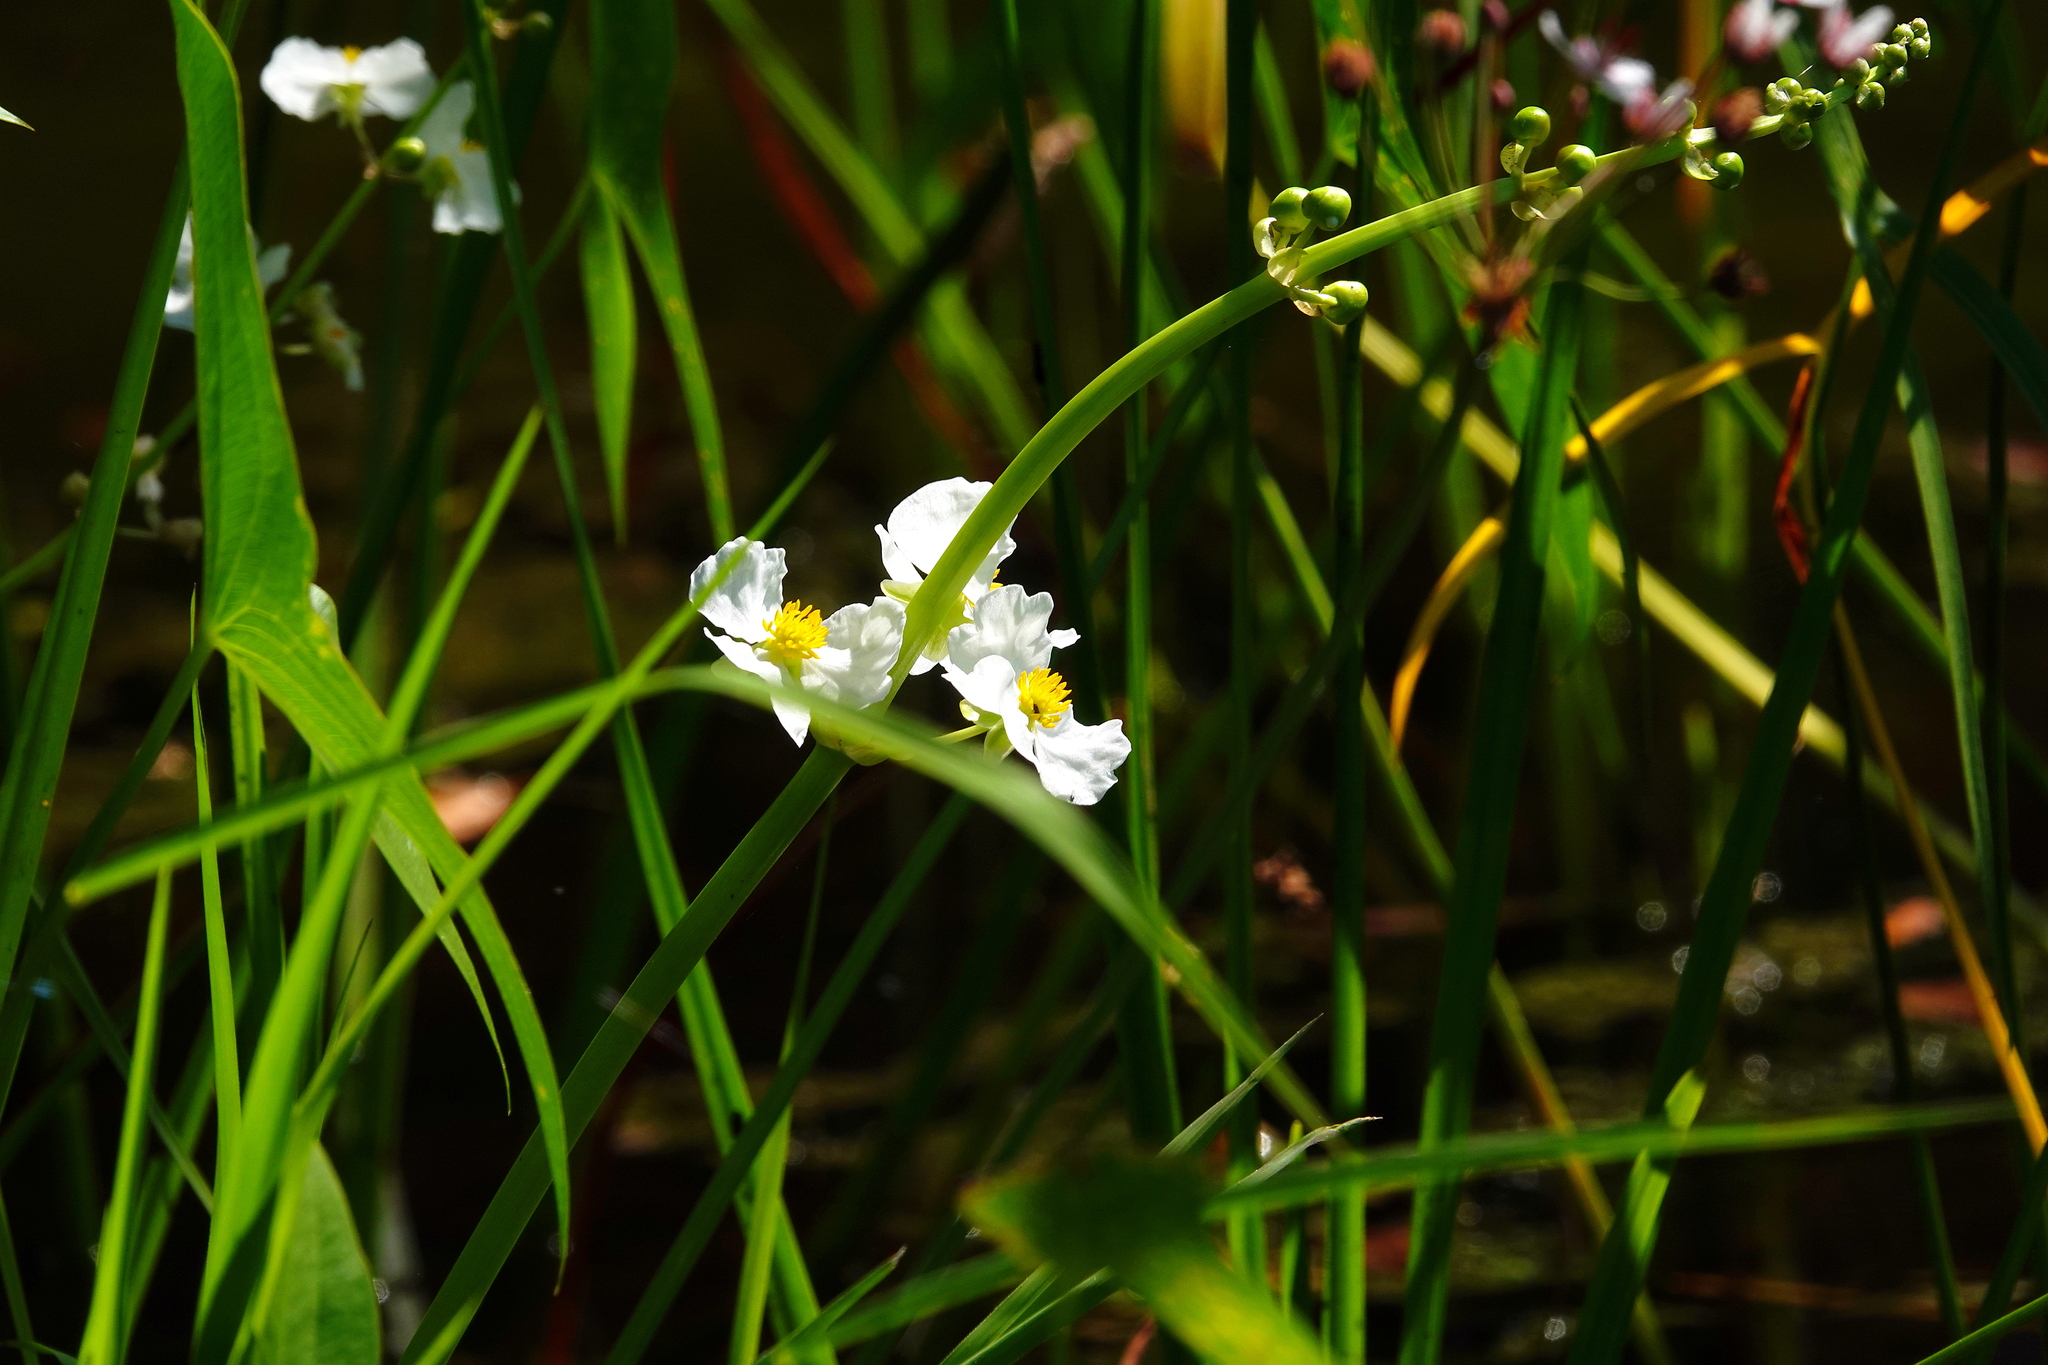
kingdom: Plantae
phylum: Tracheophyta
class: Liliopsida
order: Alismatales
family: Alismataceae
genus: Sagittaria
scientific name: Sagittaria latifolia
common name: Duck-potato
